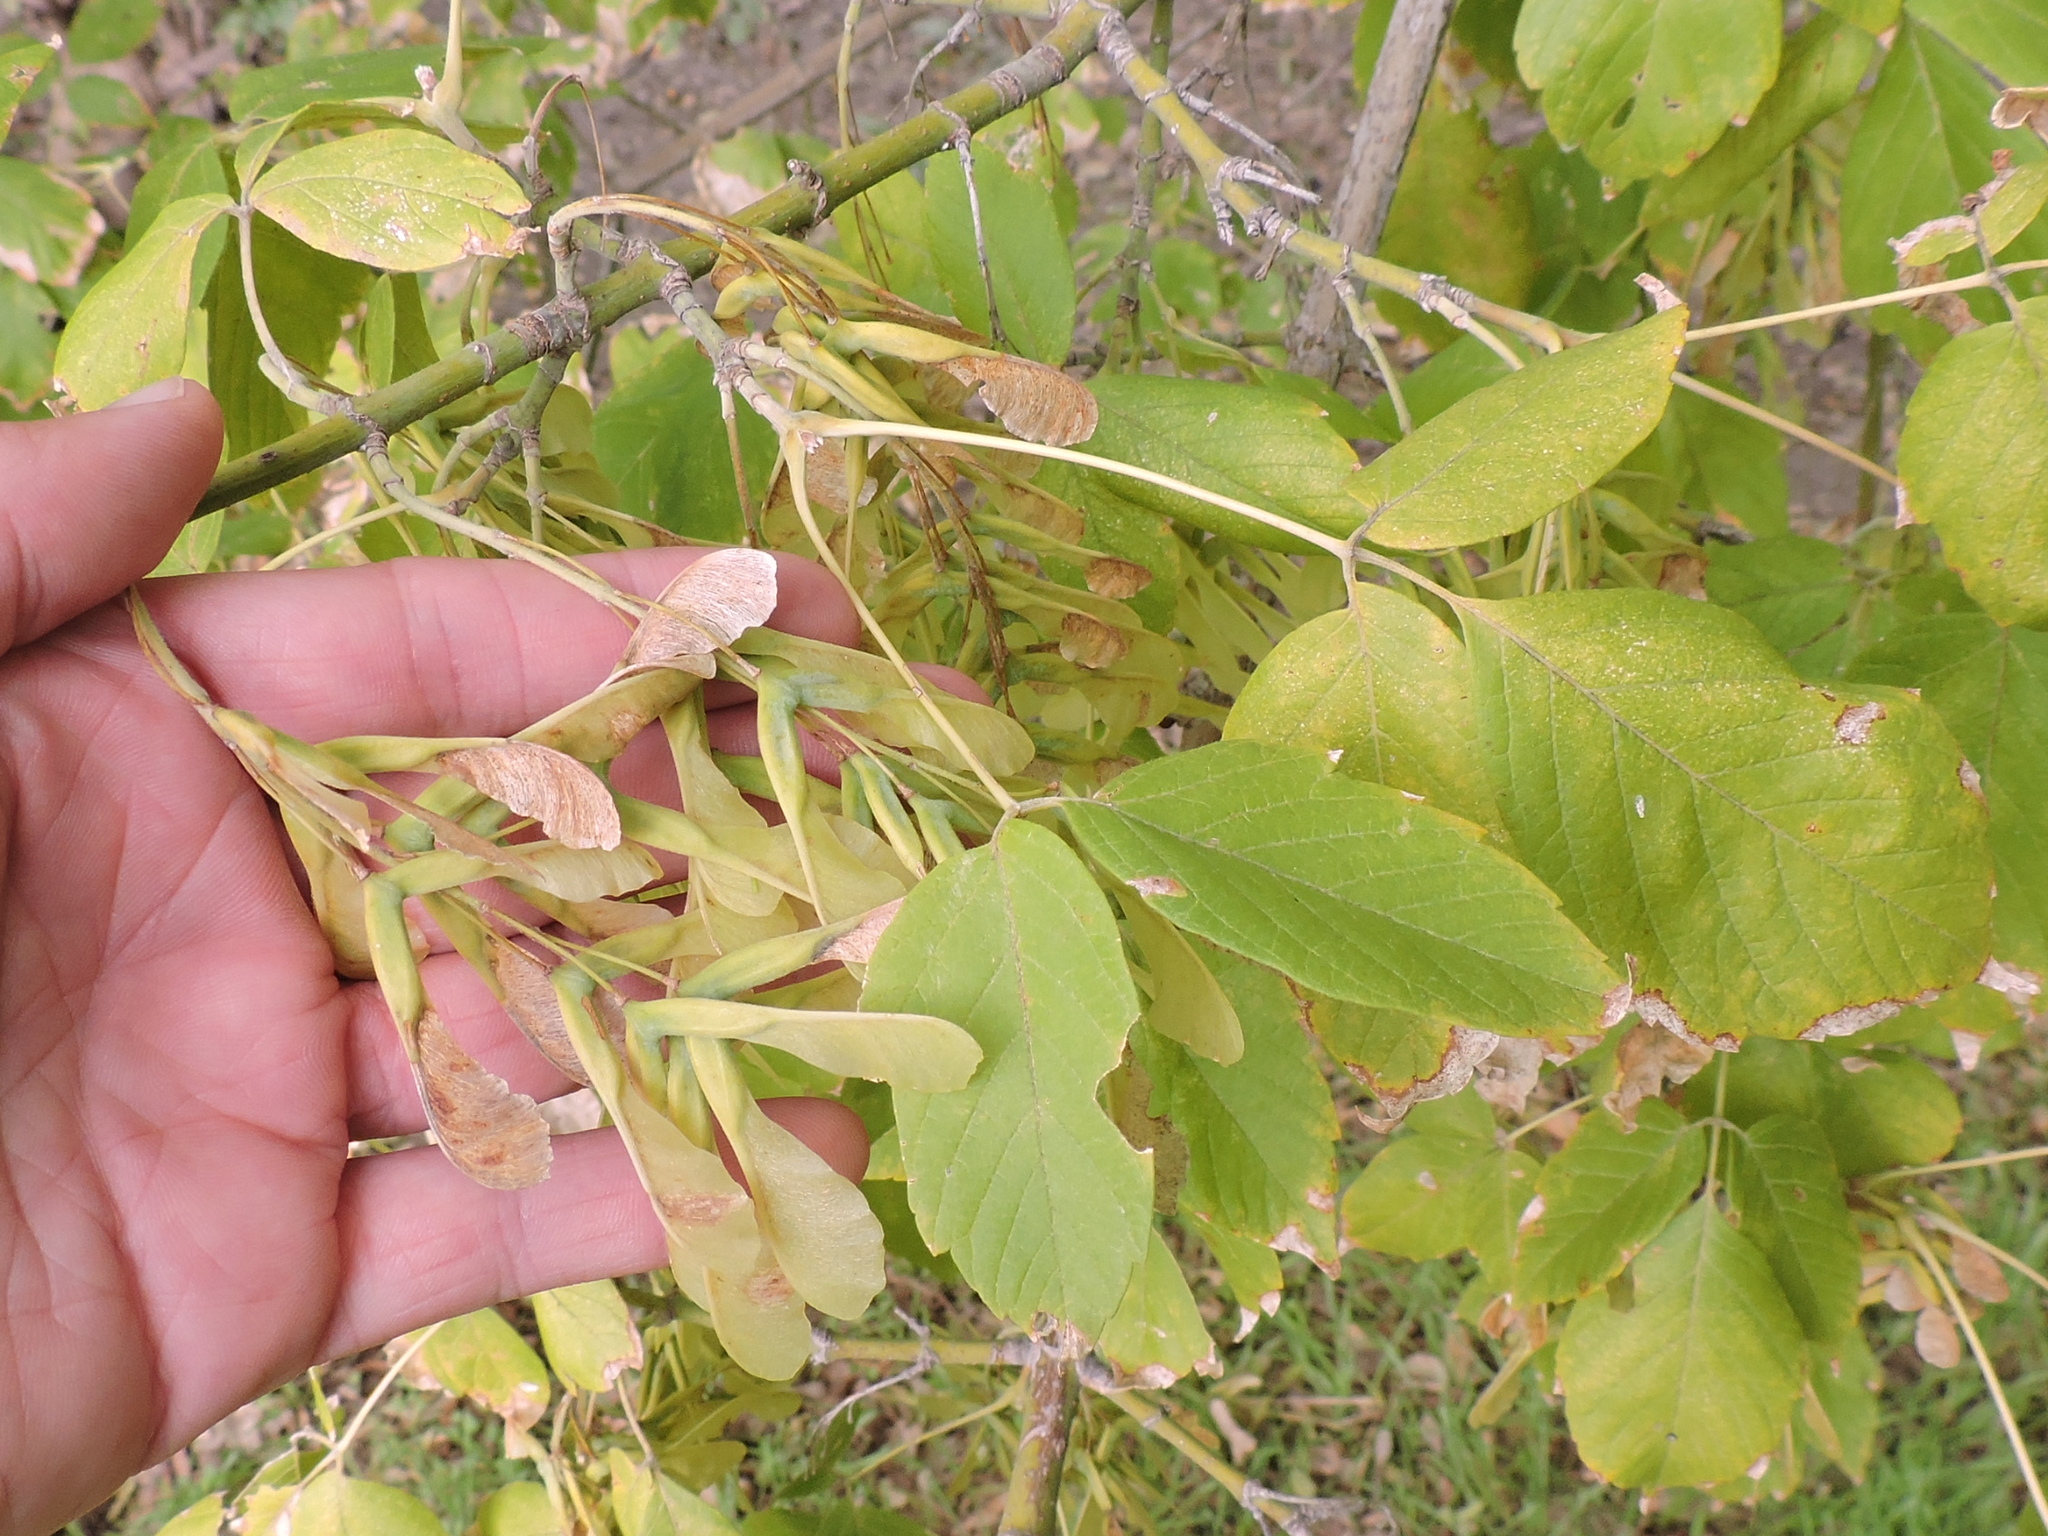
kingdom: Plantae
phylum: Tracheophyta
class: Magnoliopsida
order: Sapindales
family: Sapindaceae
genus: Acer
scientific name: Acer negundo
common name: Ashleaf maple
